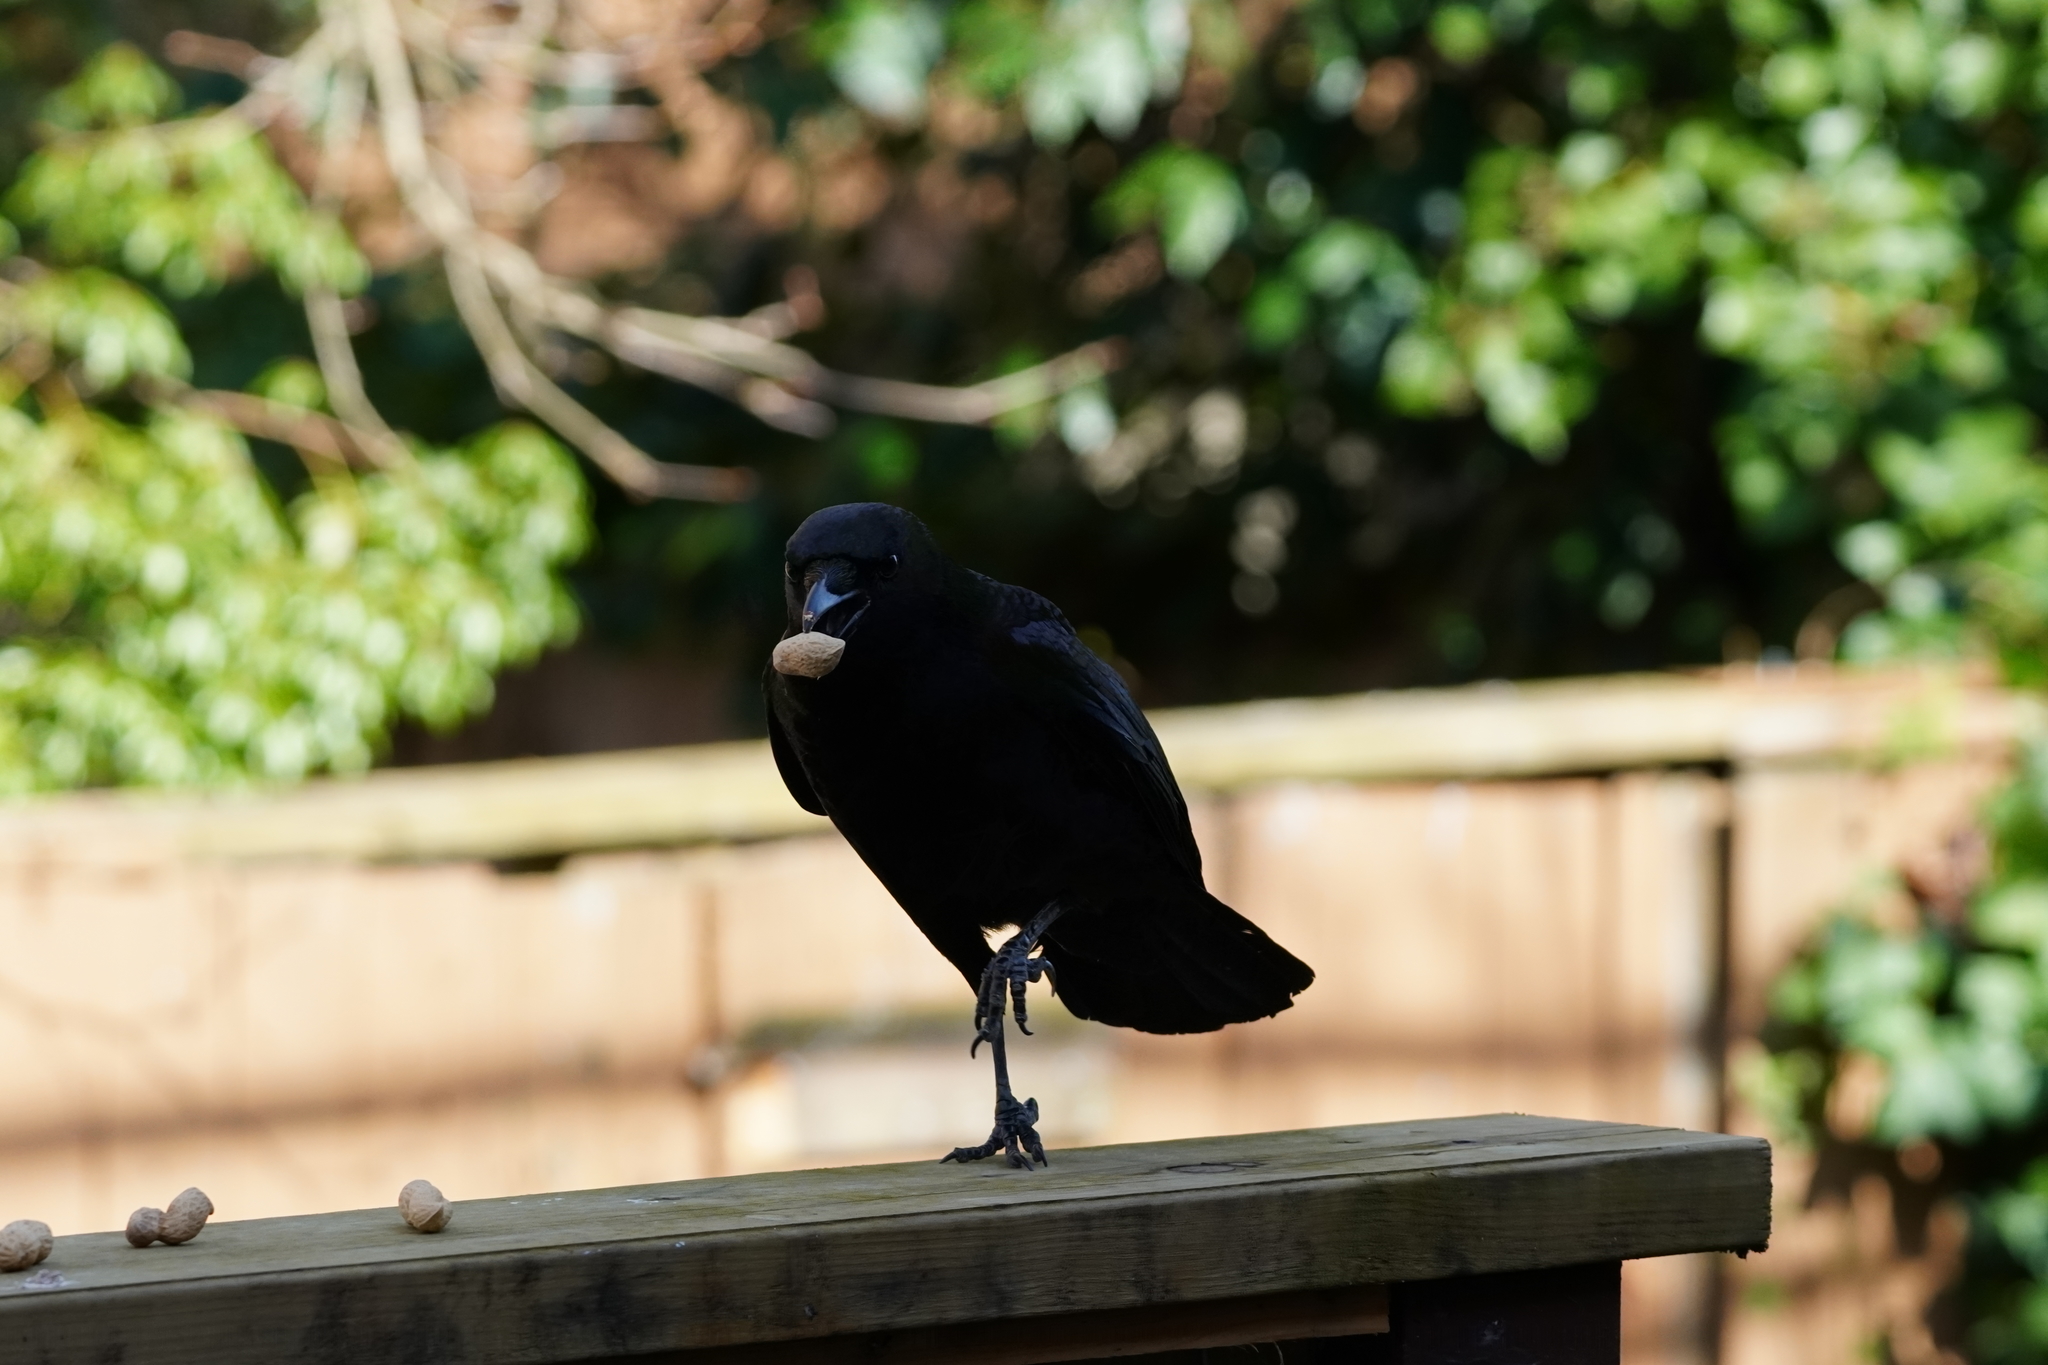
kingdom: Animalia
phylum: Chordata
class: Aves
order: Passeriformes
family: Corvidae
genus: Corvus
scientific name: Corvus brachyrhynchos
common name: American crow
